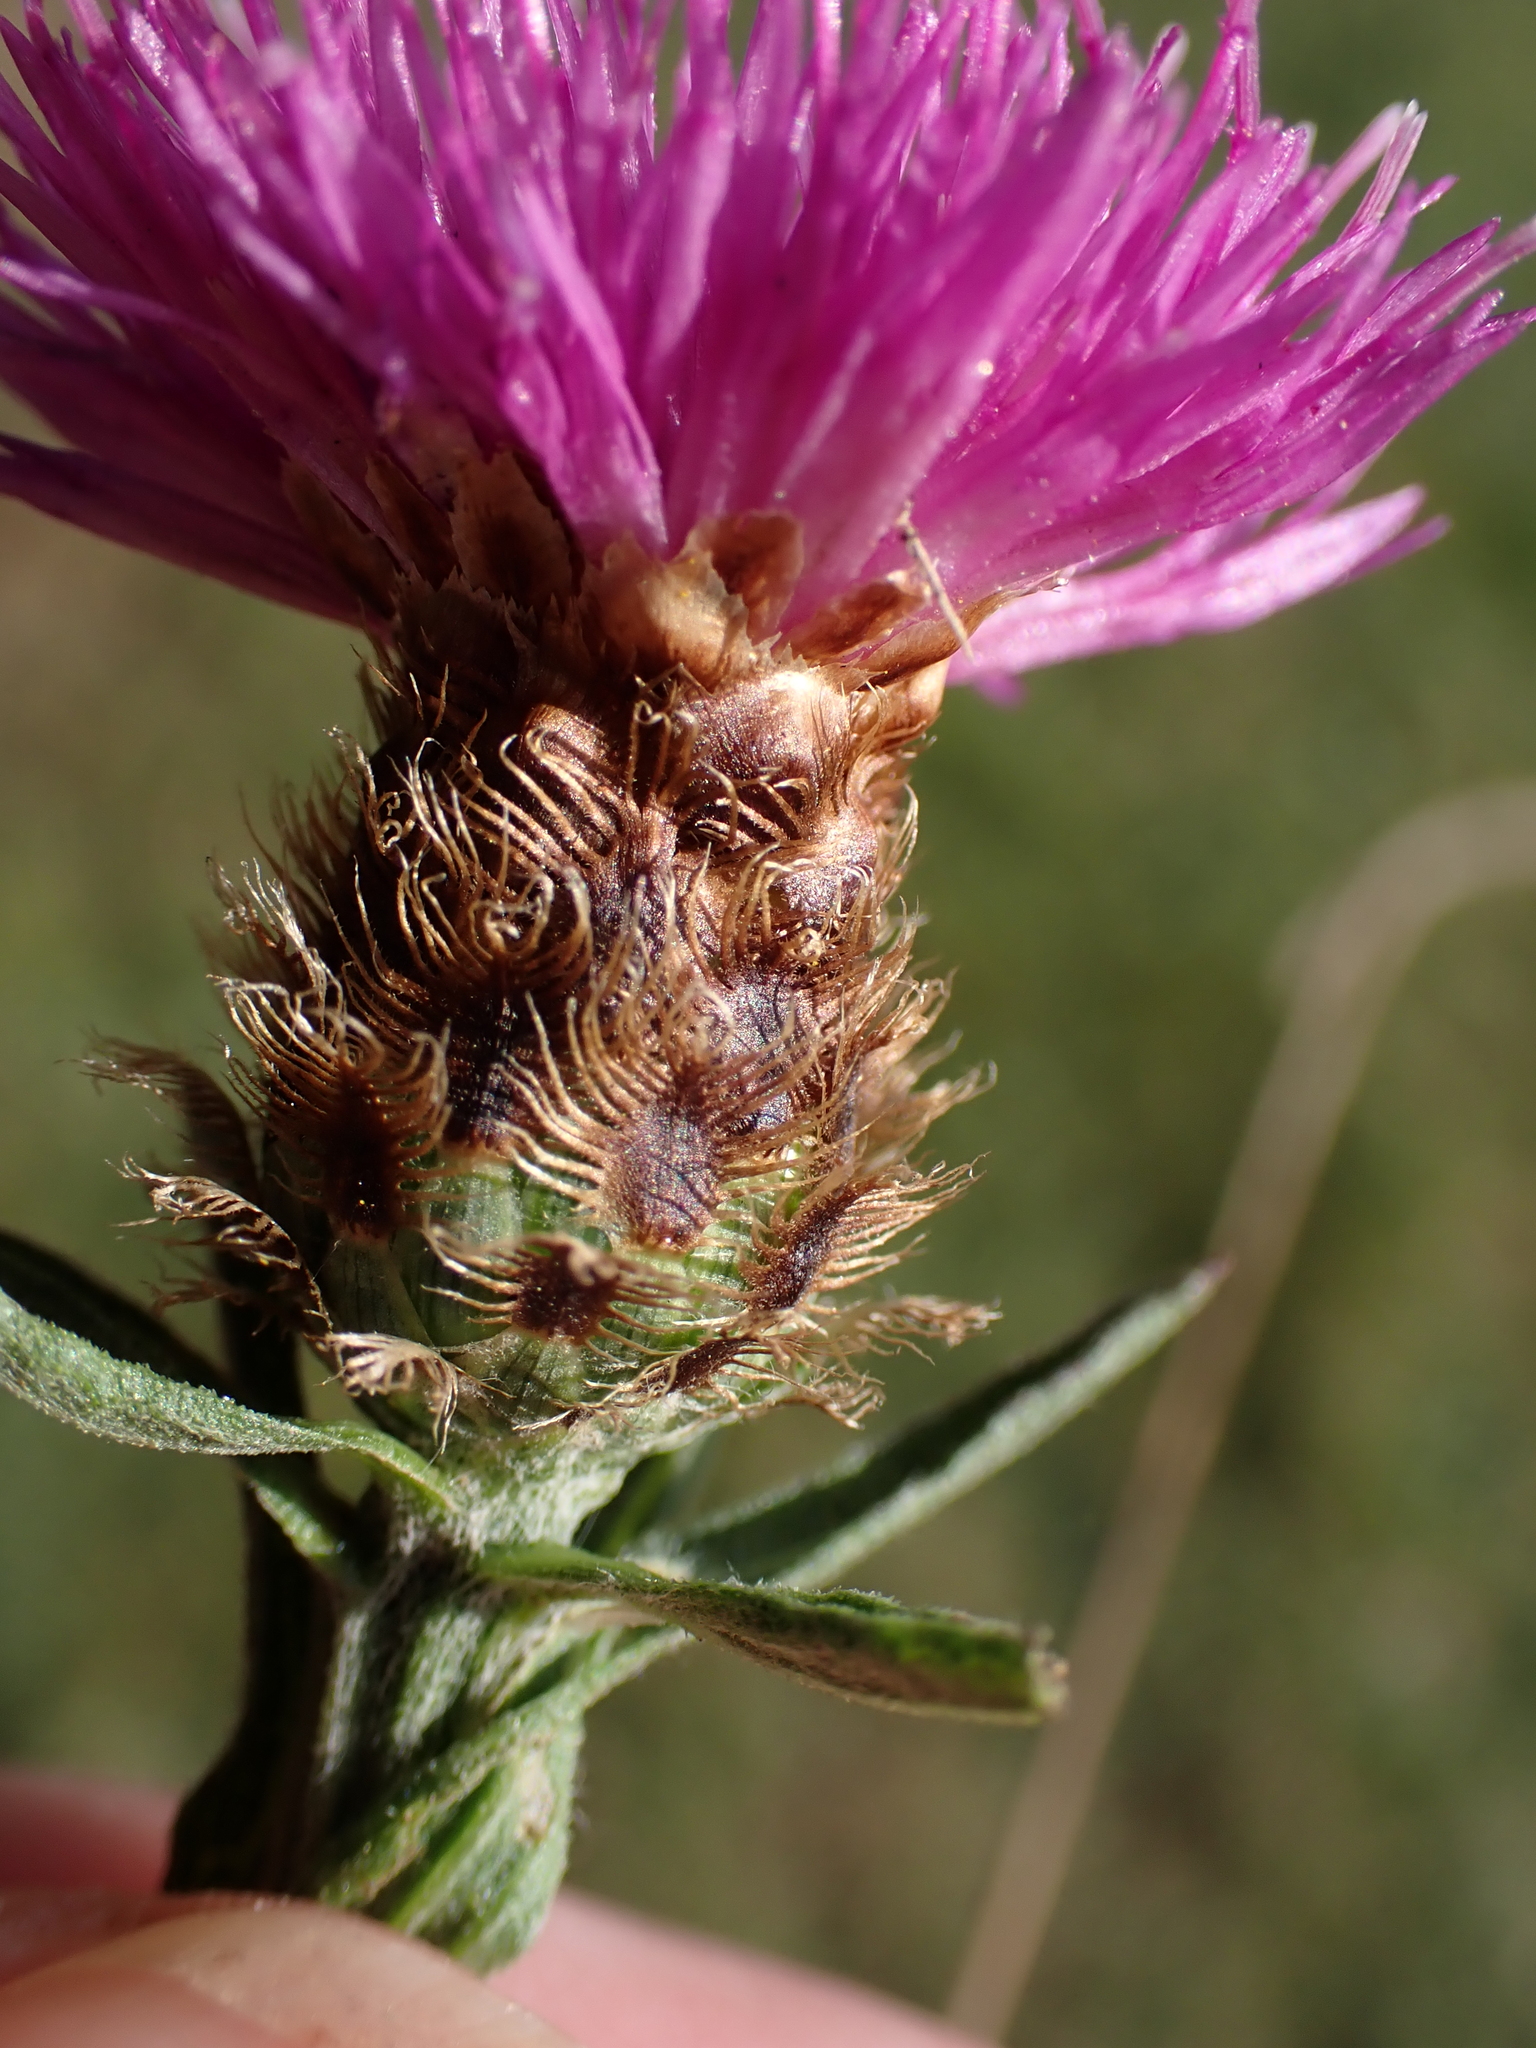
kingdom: Plantae
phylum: Tracheophyta
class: Magnoliopsida
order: Asterales
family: Asteraceae
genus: Centaurea
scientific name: Centaurea nigra
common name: Lesser knapweed
